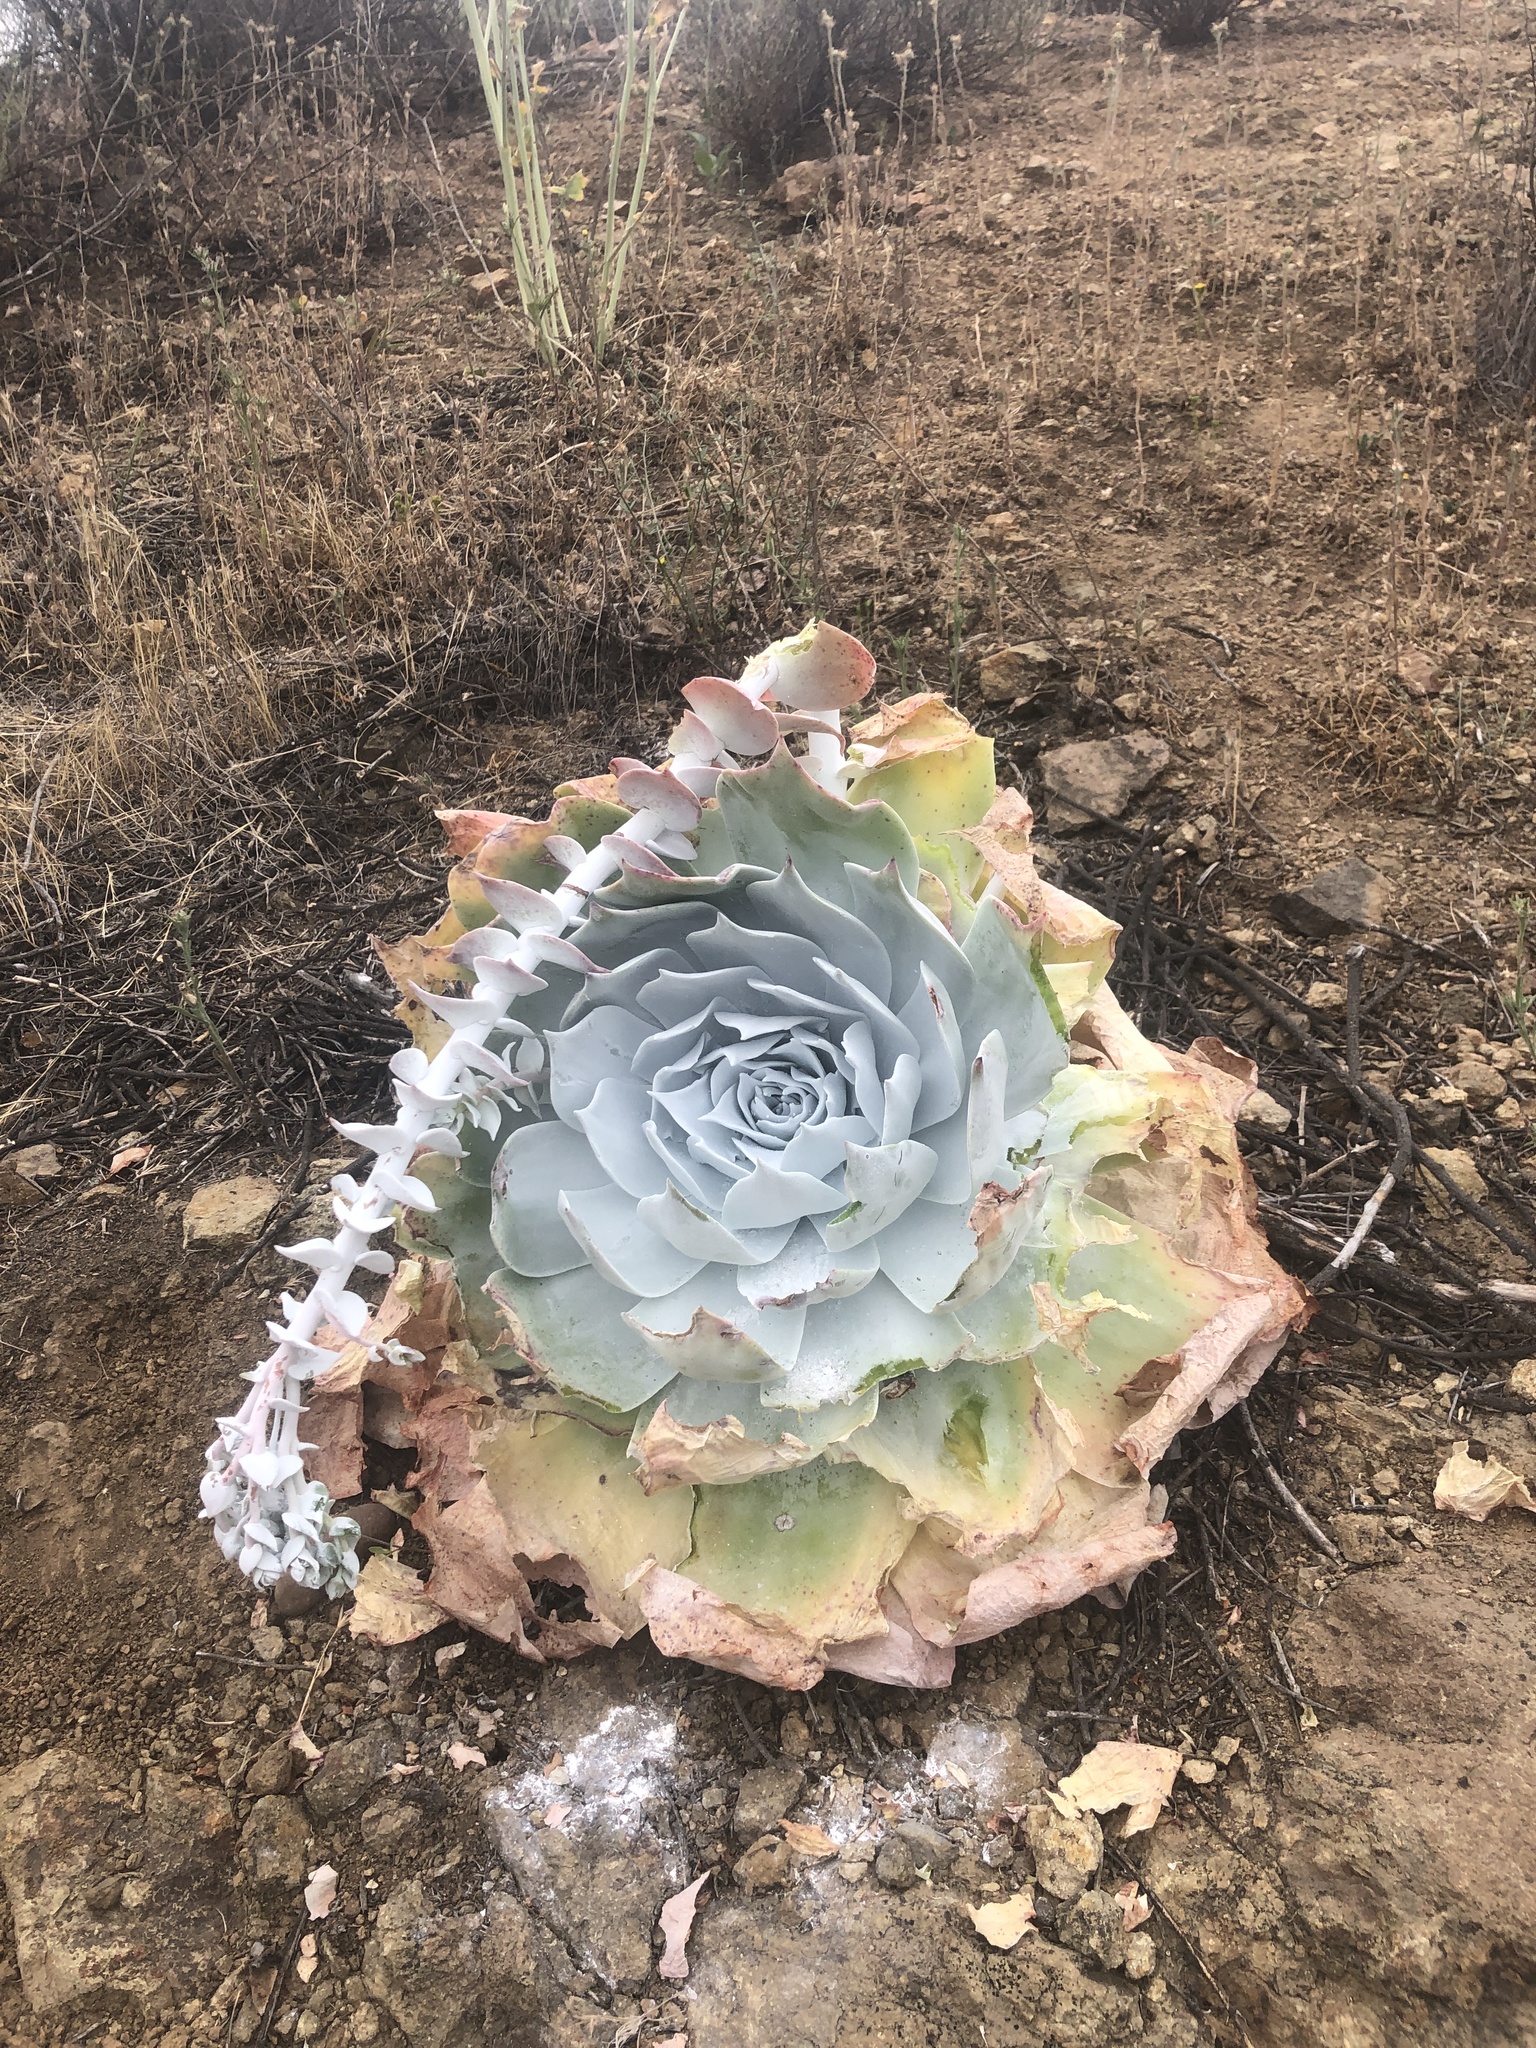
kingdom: Plantae
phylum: Tracheophyta
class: Magnoliopsida
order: Saxifragales
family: Crassulaceae
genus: Dudleya
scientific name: Dudleya pulverulenta
